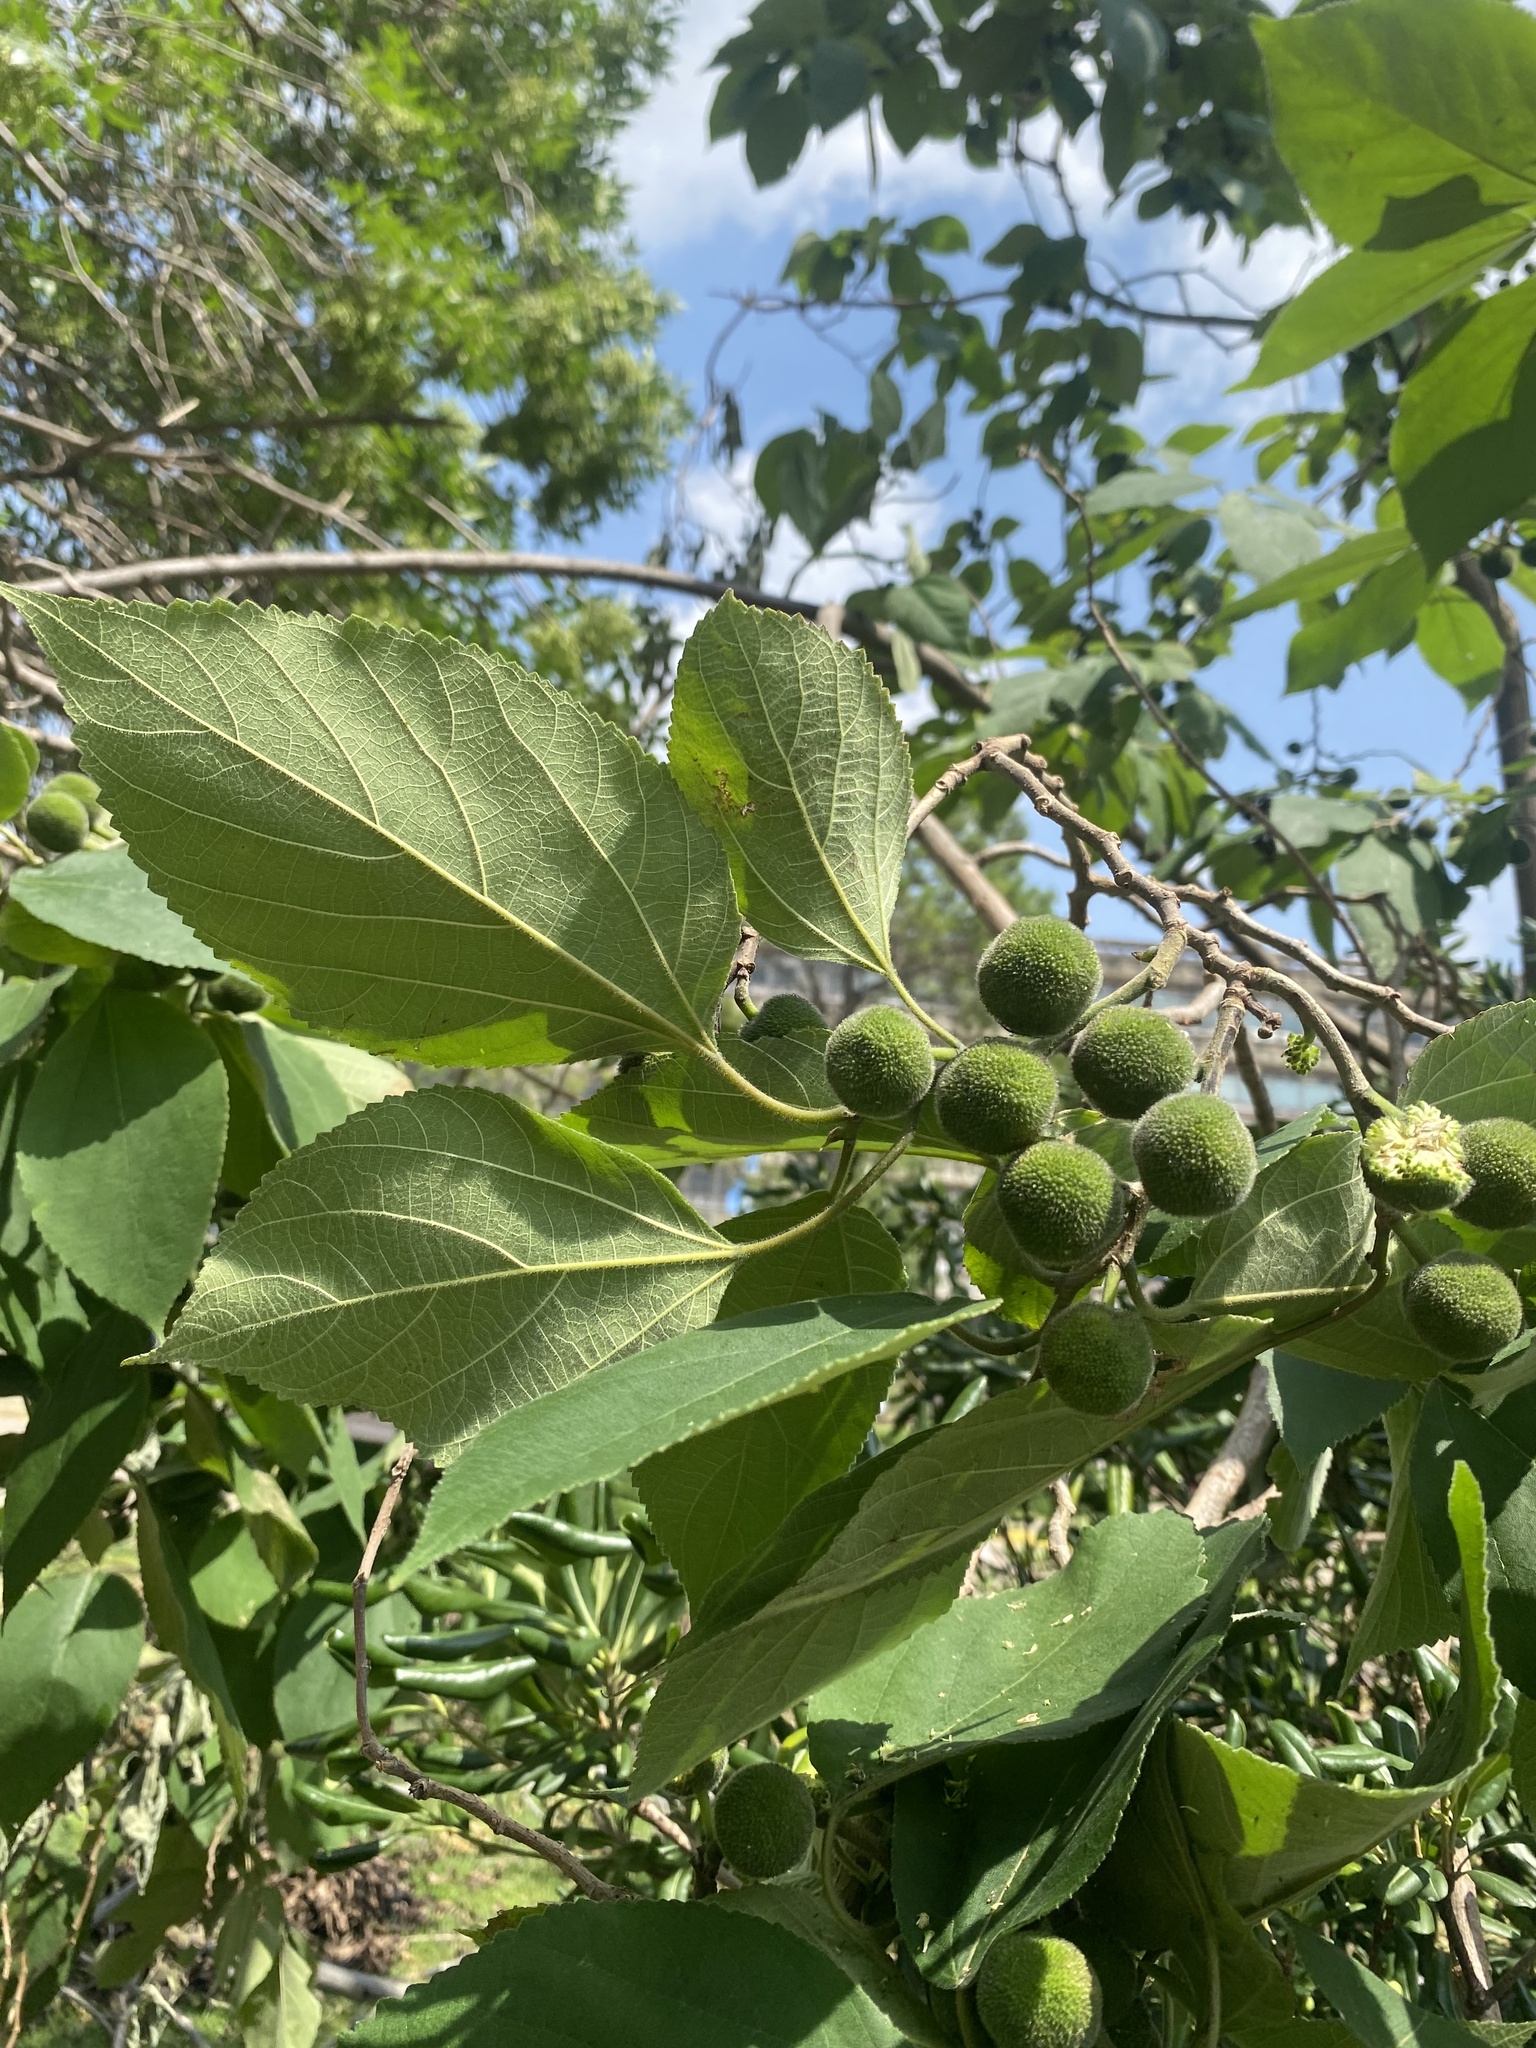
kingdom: Plantae
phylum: Tracheophyta
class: Magnoliopsida
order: Rosales
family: Moraceae
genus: Broussonetia
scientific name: Broussonetia papyrifera
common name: Paper mulberry
